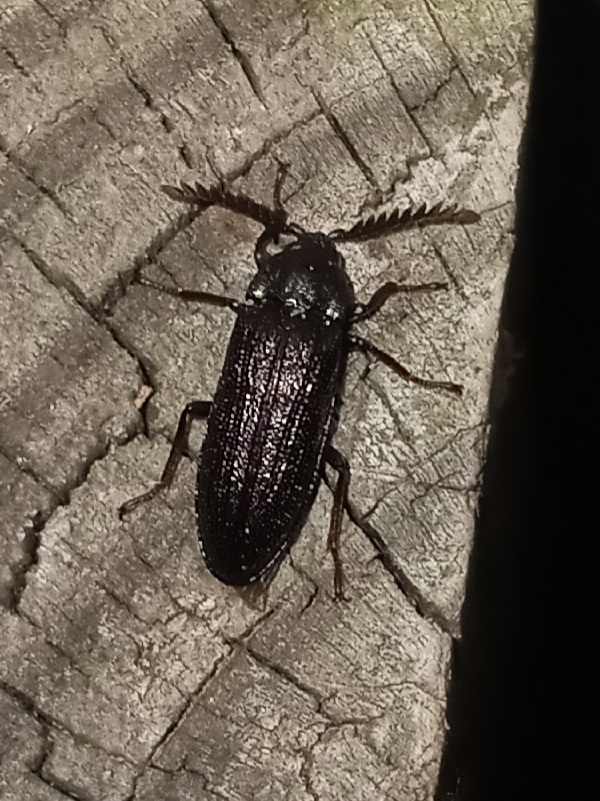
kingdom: Animalia
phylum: Arthropoda
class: Insecta
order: Coleoptera
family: Callirhipidae
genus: Zenoa
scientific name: Zenoa picea
